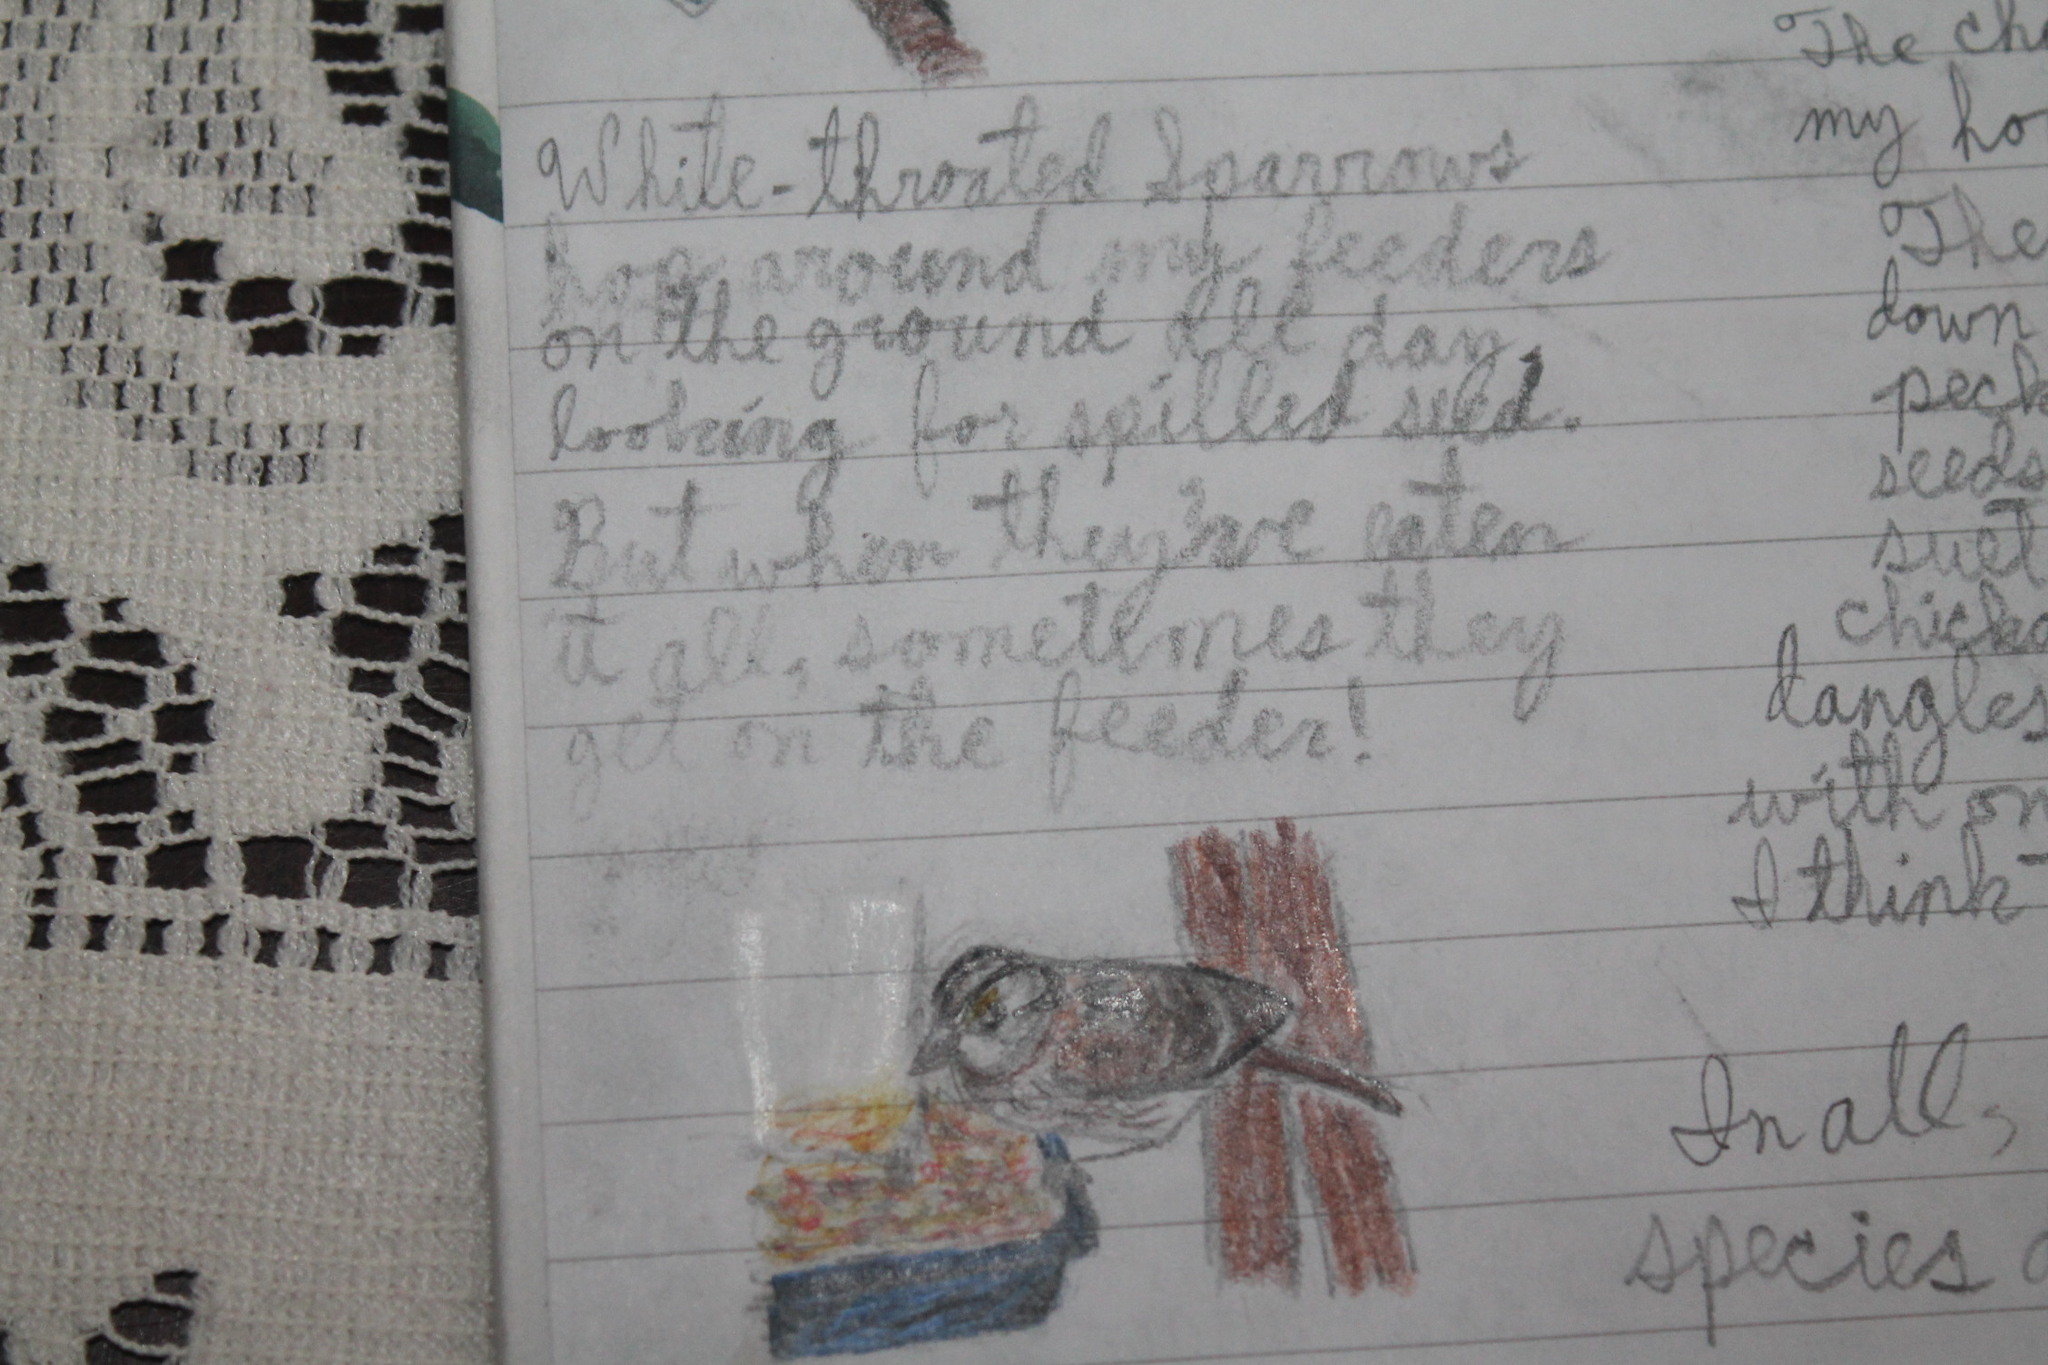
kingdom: Animalia
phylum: Chordata
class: Aves
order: Passeriformes
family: Passerellidae
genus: Zonotrichia
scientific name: Zonotrichia albicollis
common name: White-throated sparrow
